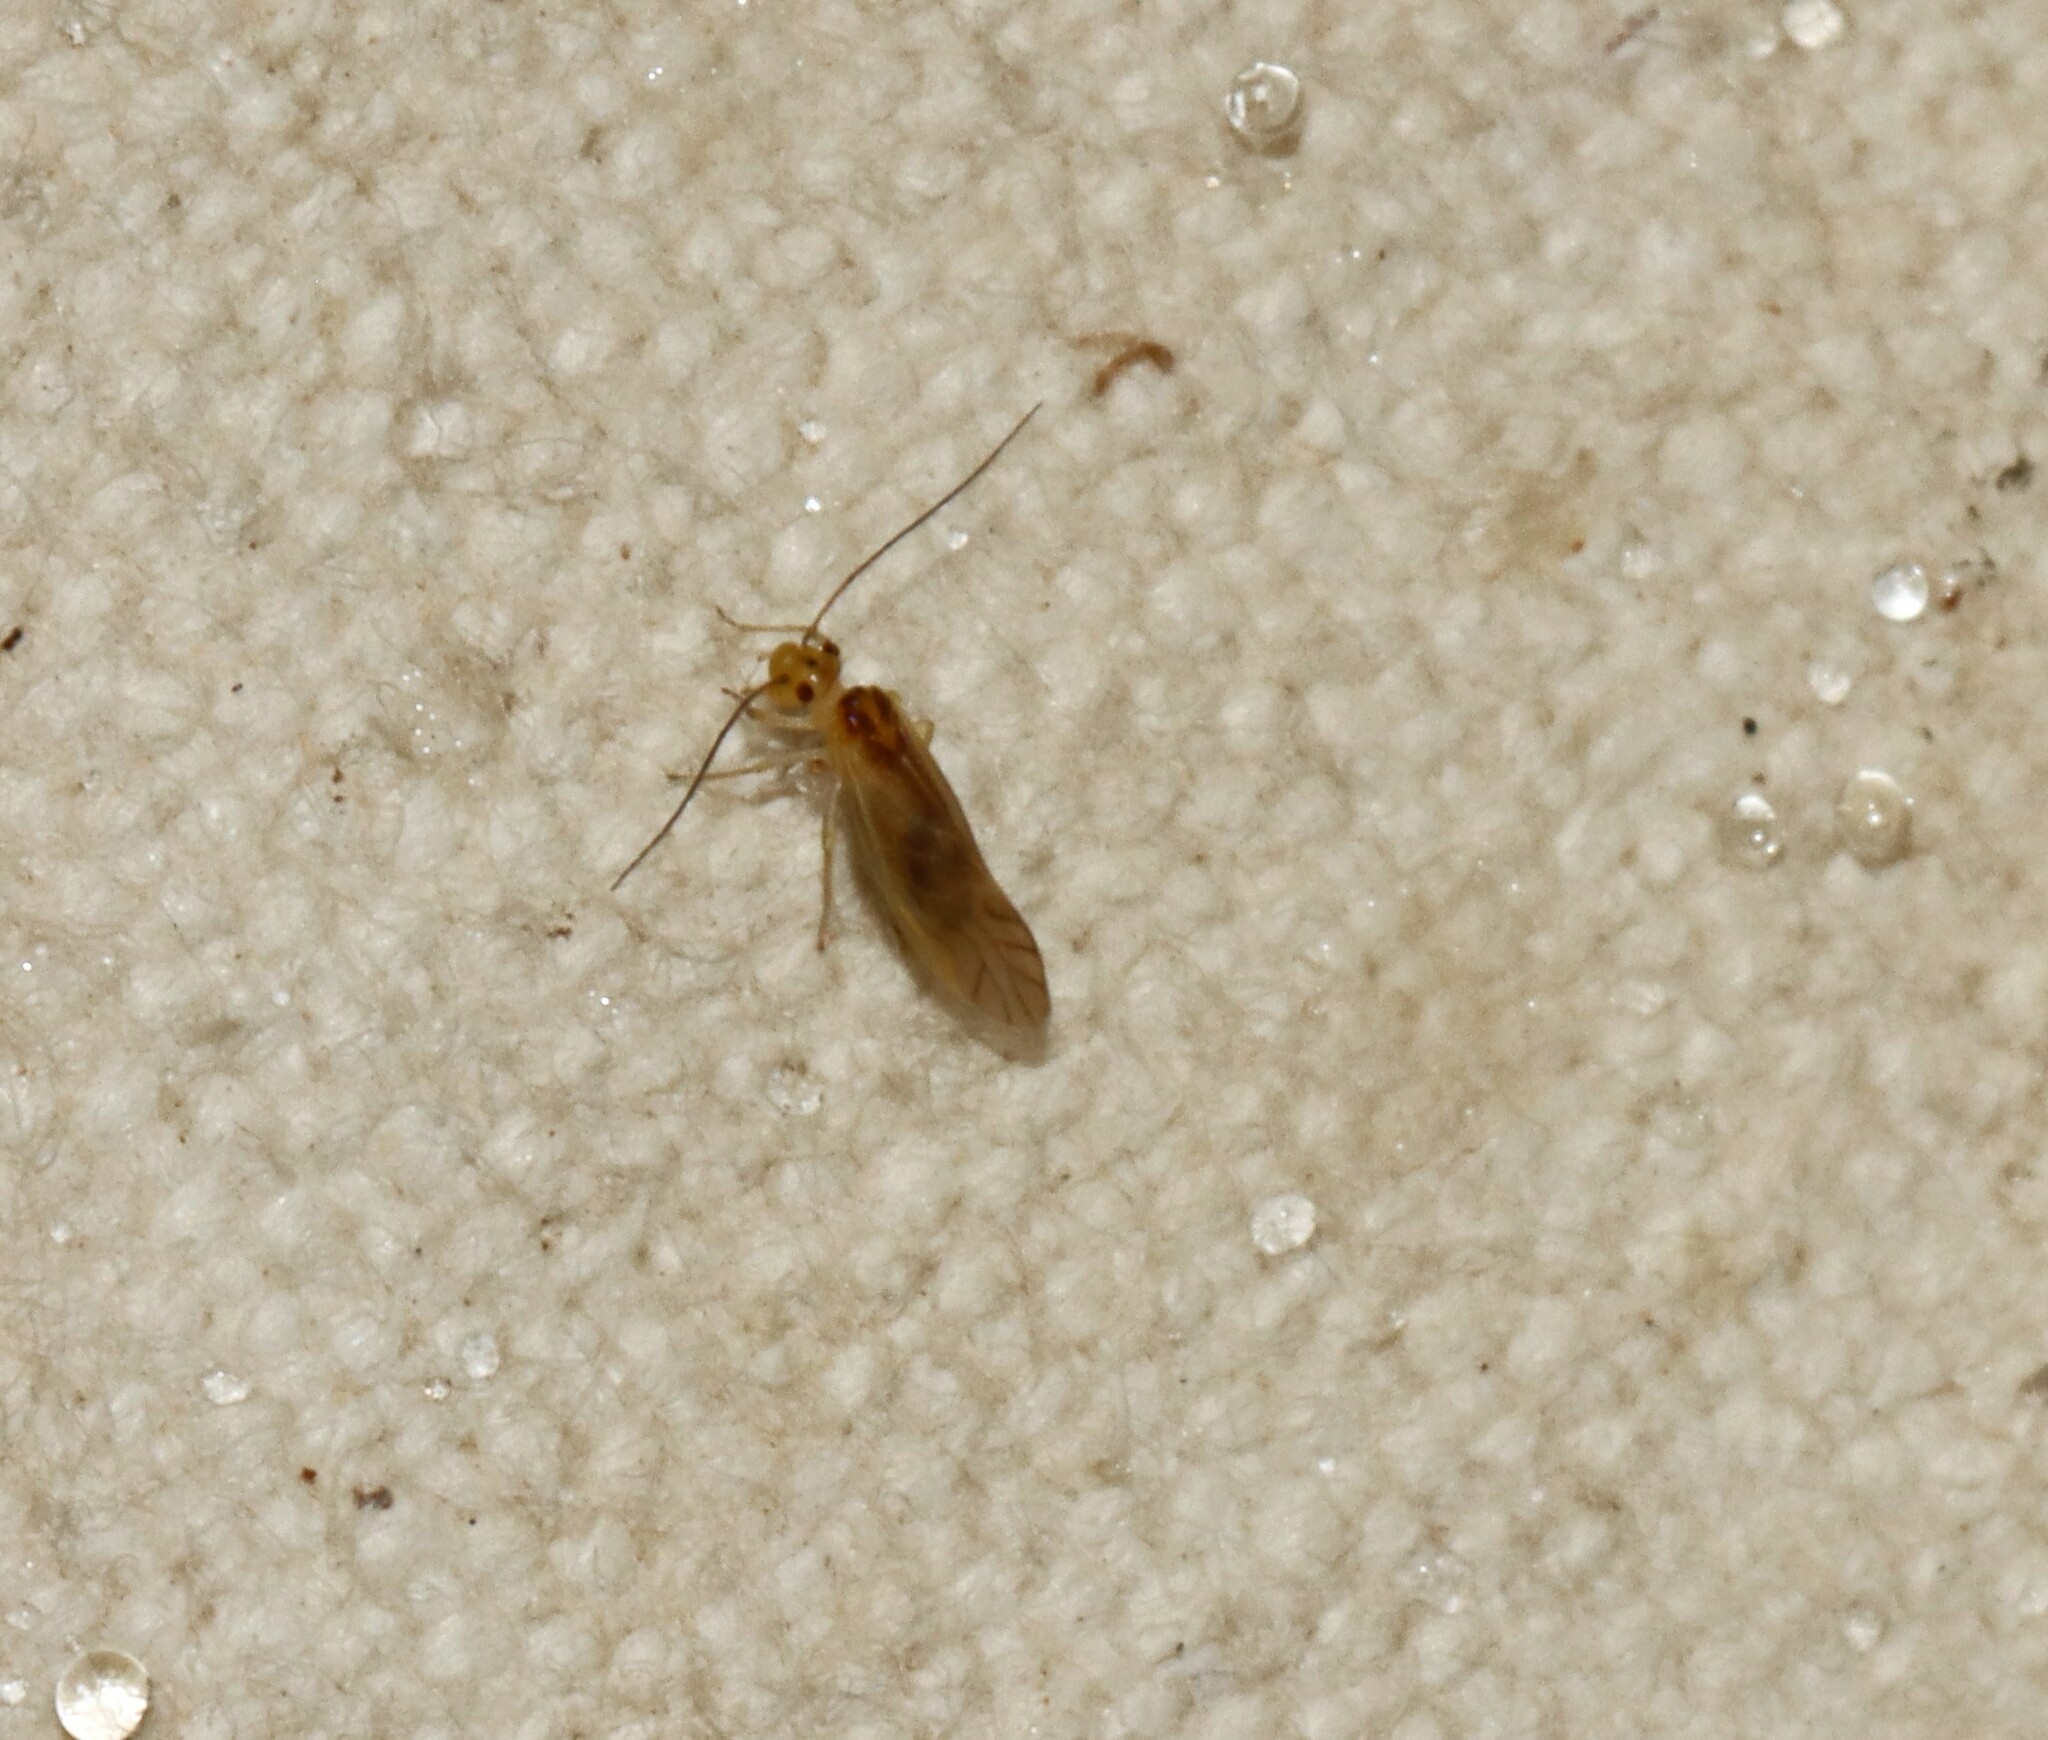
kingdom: Animalia
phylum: Arthropoda
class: Insecta
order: Psocodea
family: Caeciliusidae
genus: Valenzuela
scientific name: Valenzuela flavidus
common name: Yellow barklouse
